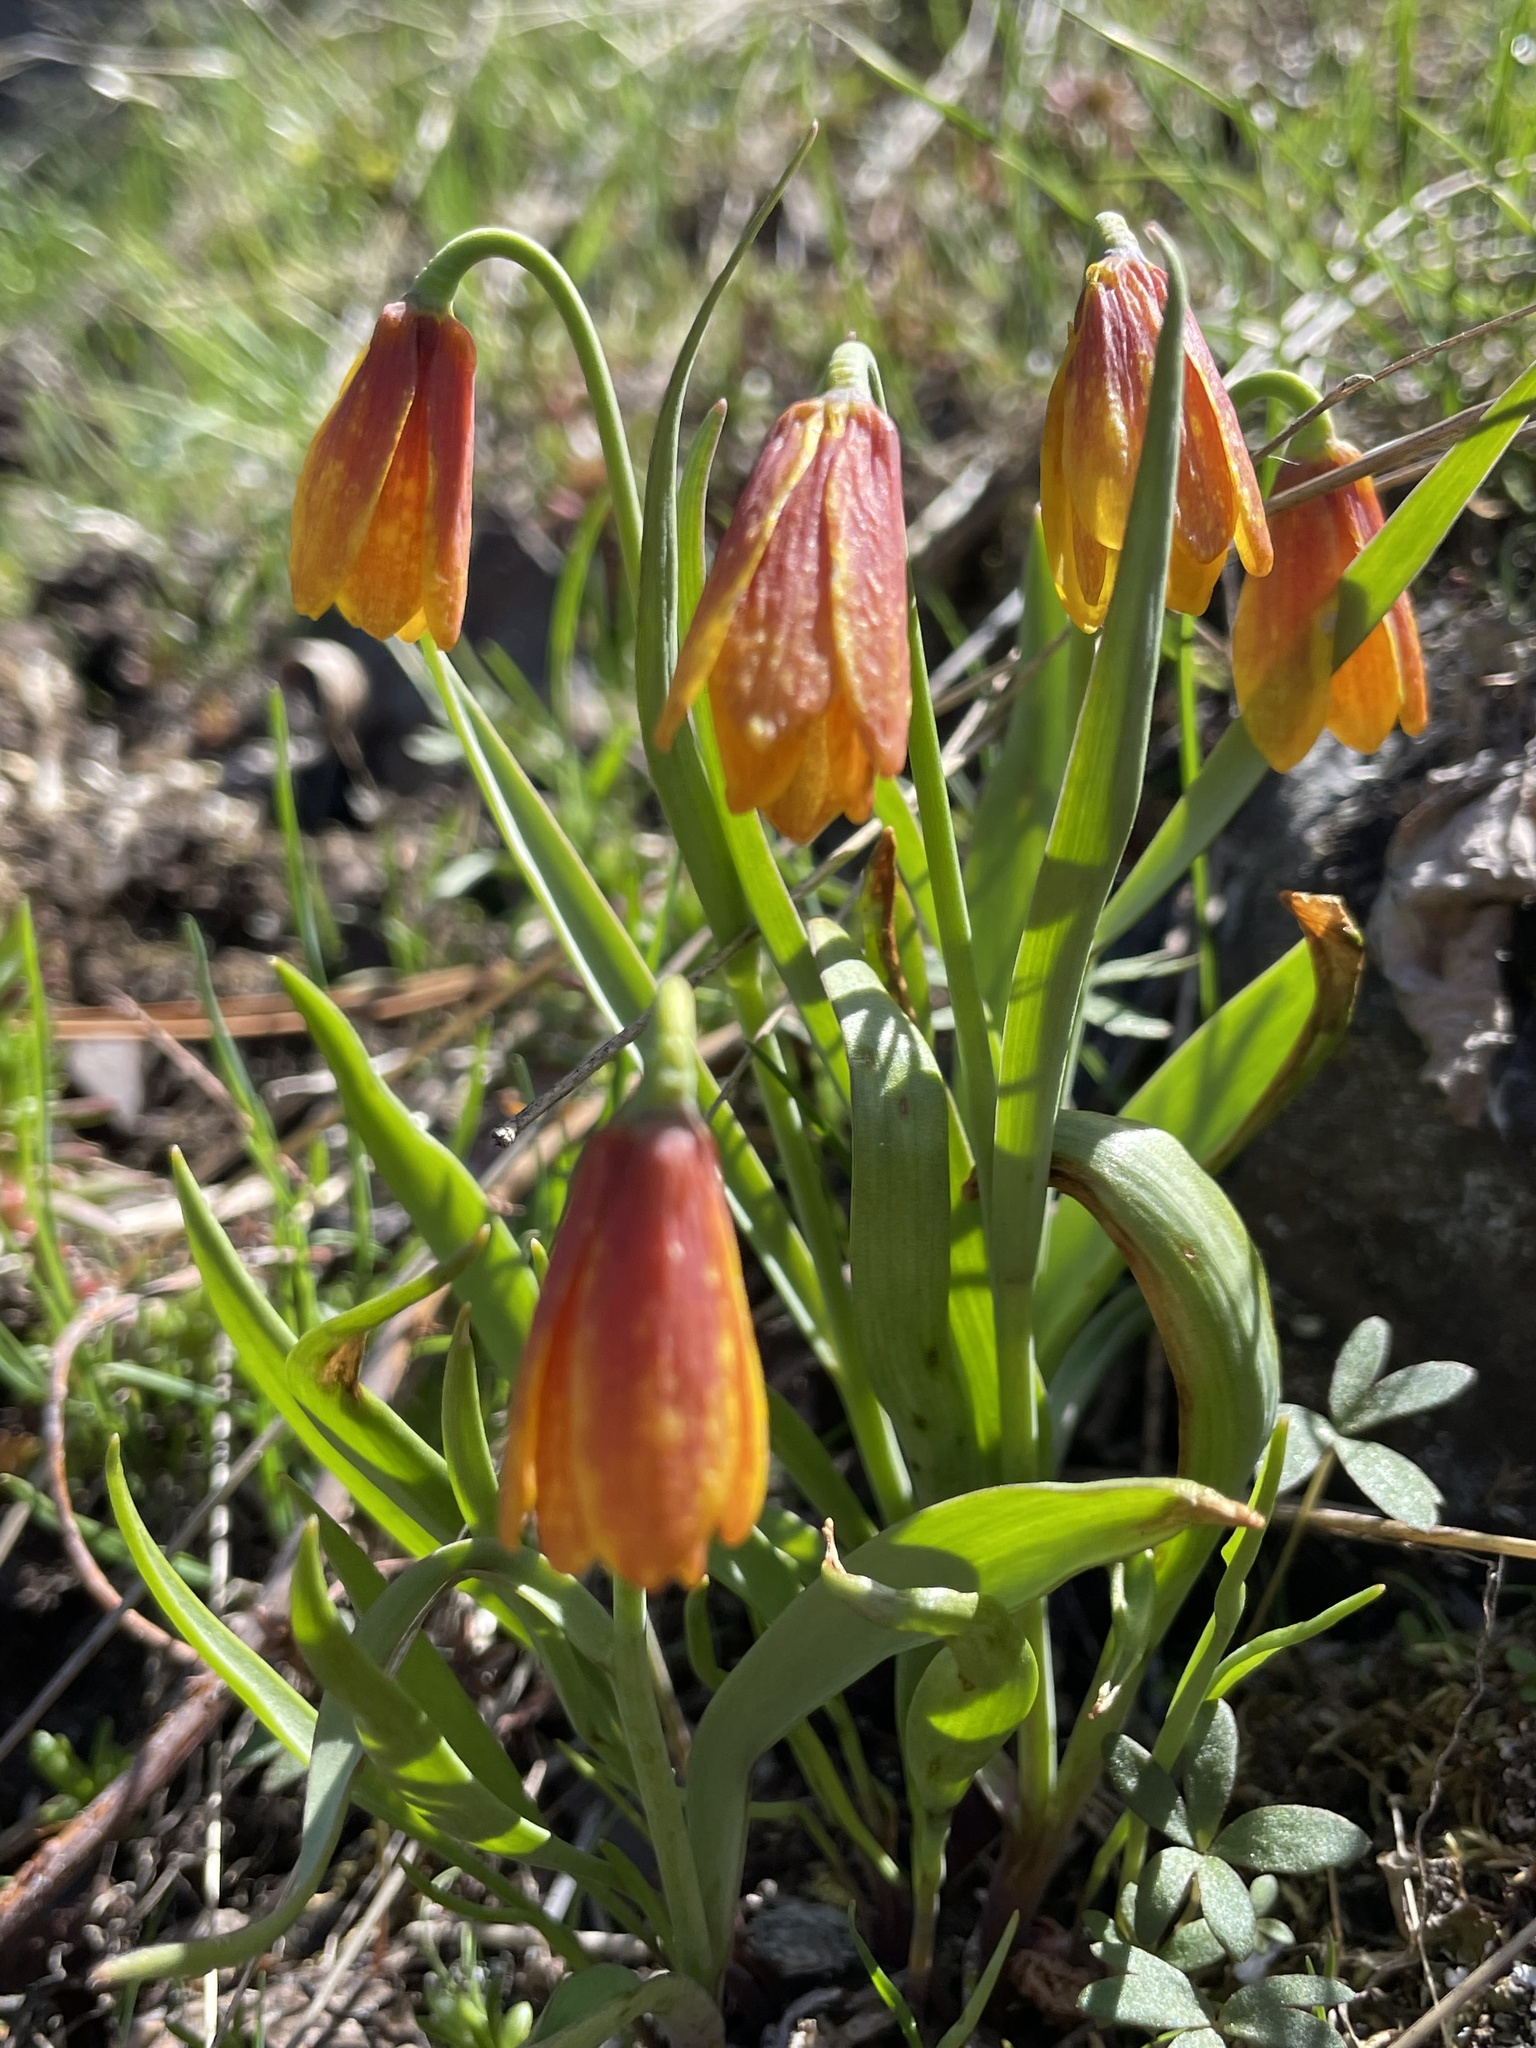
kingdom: Plantae
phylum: Tracheophyta
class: Liliopsida
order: Liliales
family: Liliaceae
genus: Fritillaria
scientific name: Fritillaria pudica
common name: Yellow fritillary
